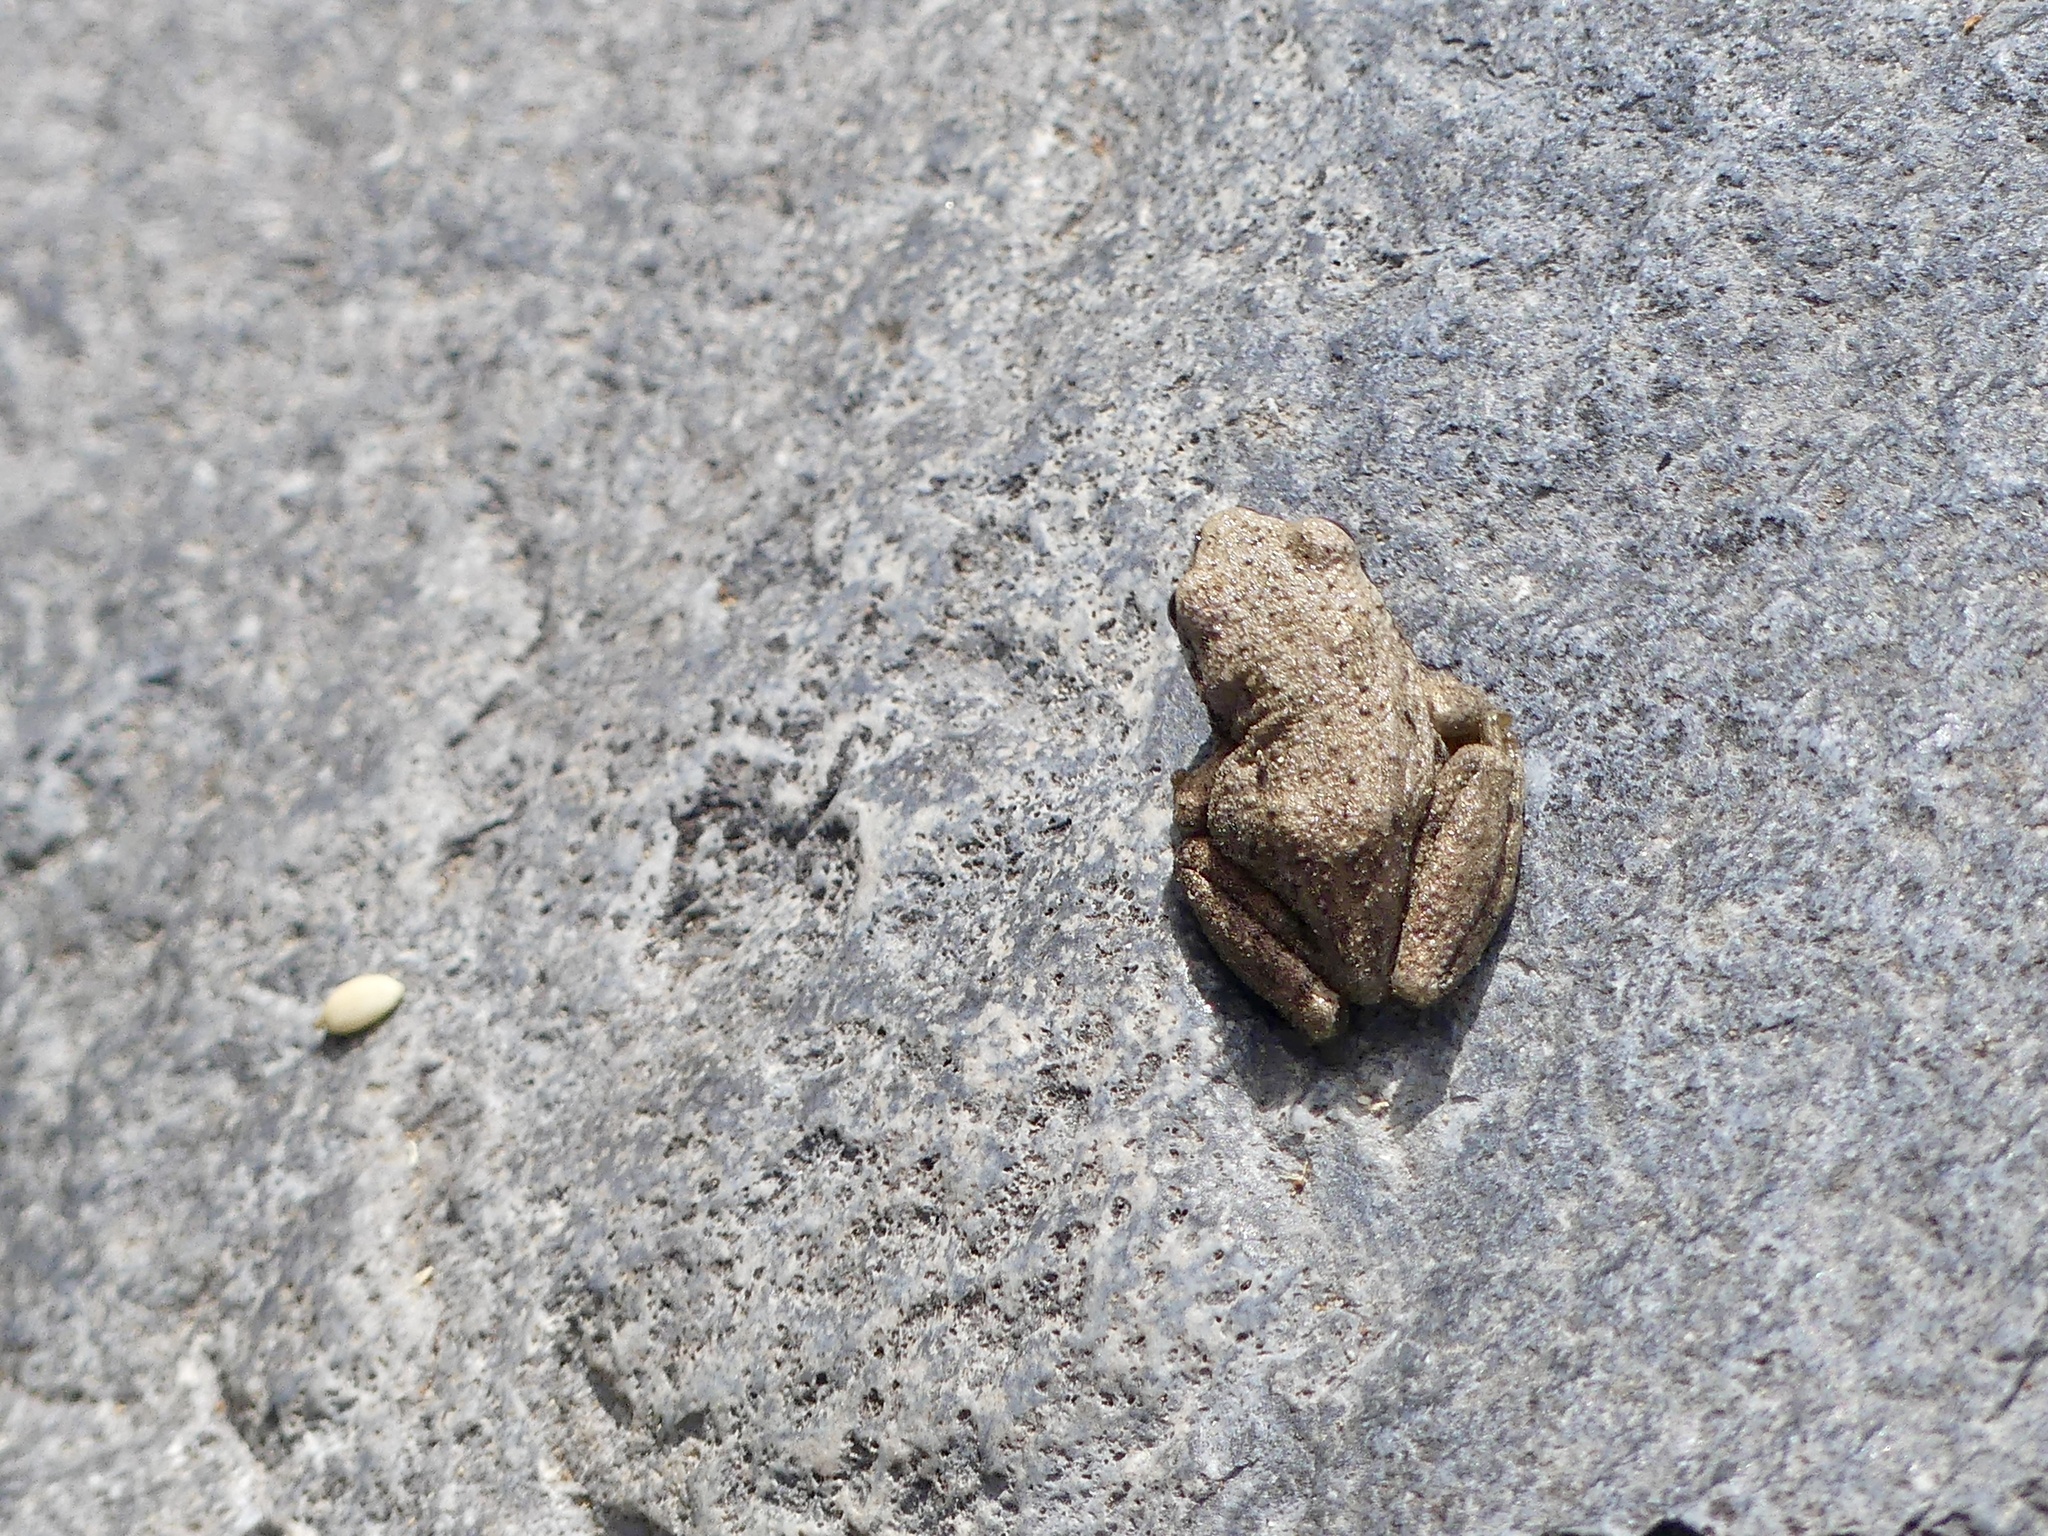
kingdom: Animalia
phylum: Chordata
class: Amphibia
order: Anura
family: Hylidae
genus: Pseudacris
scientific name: Pseudacris regilla
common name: Pacific chorus frog
